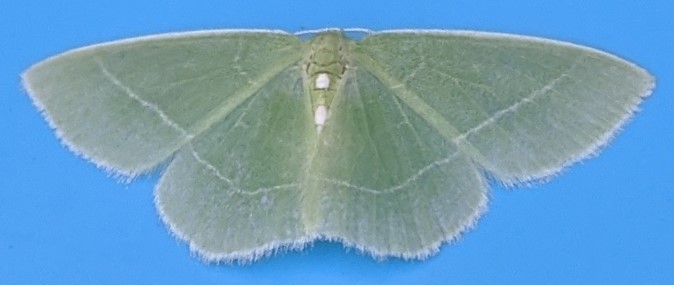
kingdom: Animalia
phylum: Arthropoda
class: Insecta
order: Lepidoptera
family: Geometridae
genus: Nemoria
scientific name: Nemoria mimosaria
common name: White-fringed emerald
